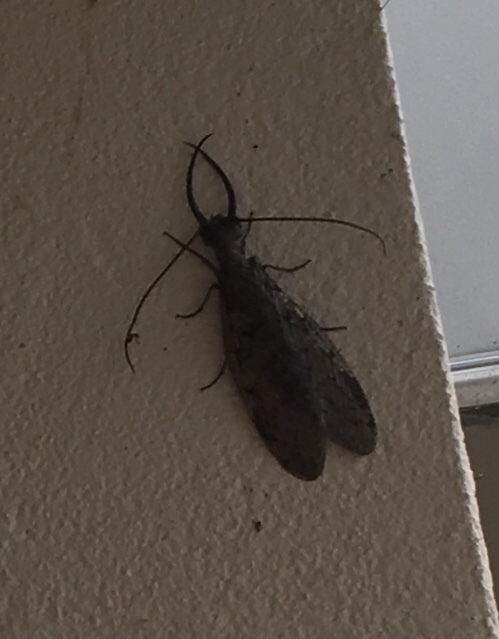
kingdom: Animalia
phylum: Arthropoda
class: Insecta
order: Megaloptera
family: Corydalidae
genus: Corydalus
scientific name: Corydalus cornutus
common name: Dobsonfly
